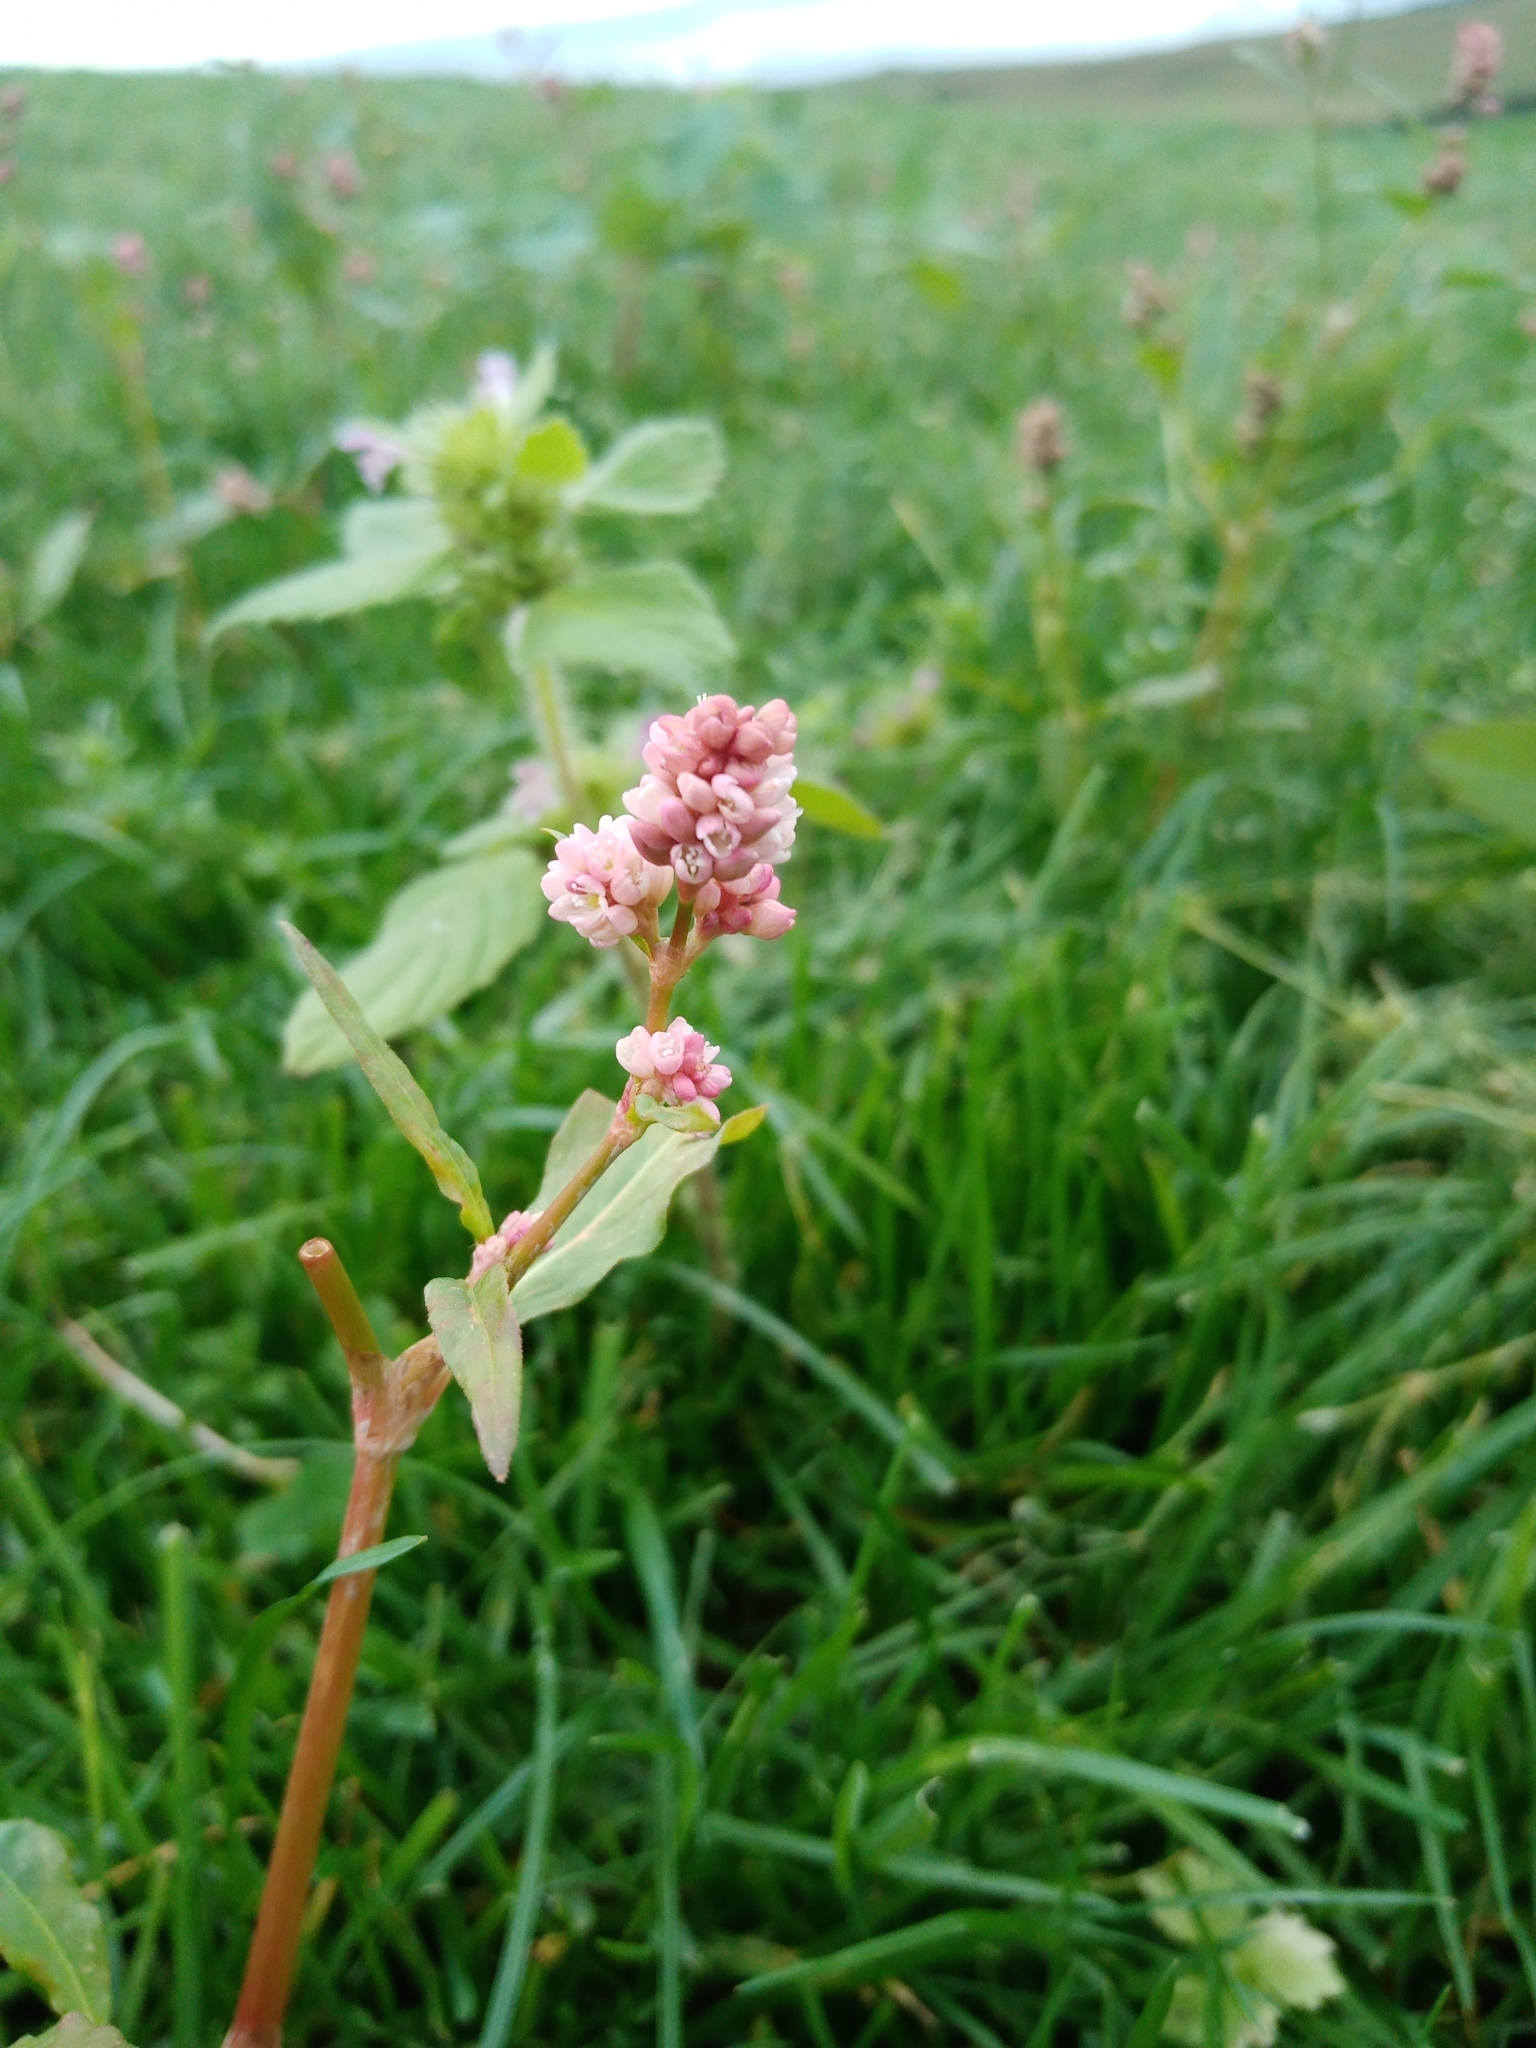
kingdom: Plantae
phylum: Tracheophyta
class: Magnoliopsida
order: Caryophyllales
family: Polygonaceae
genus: Persicaria
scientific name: Persicaria maculosa
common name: Redshank
